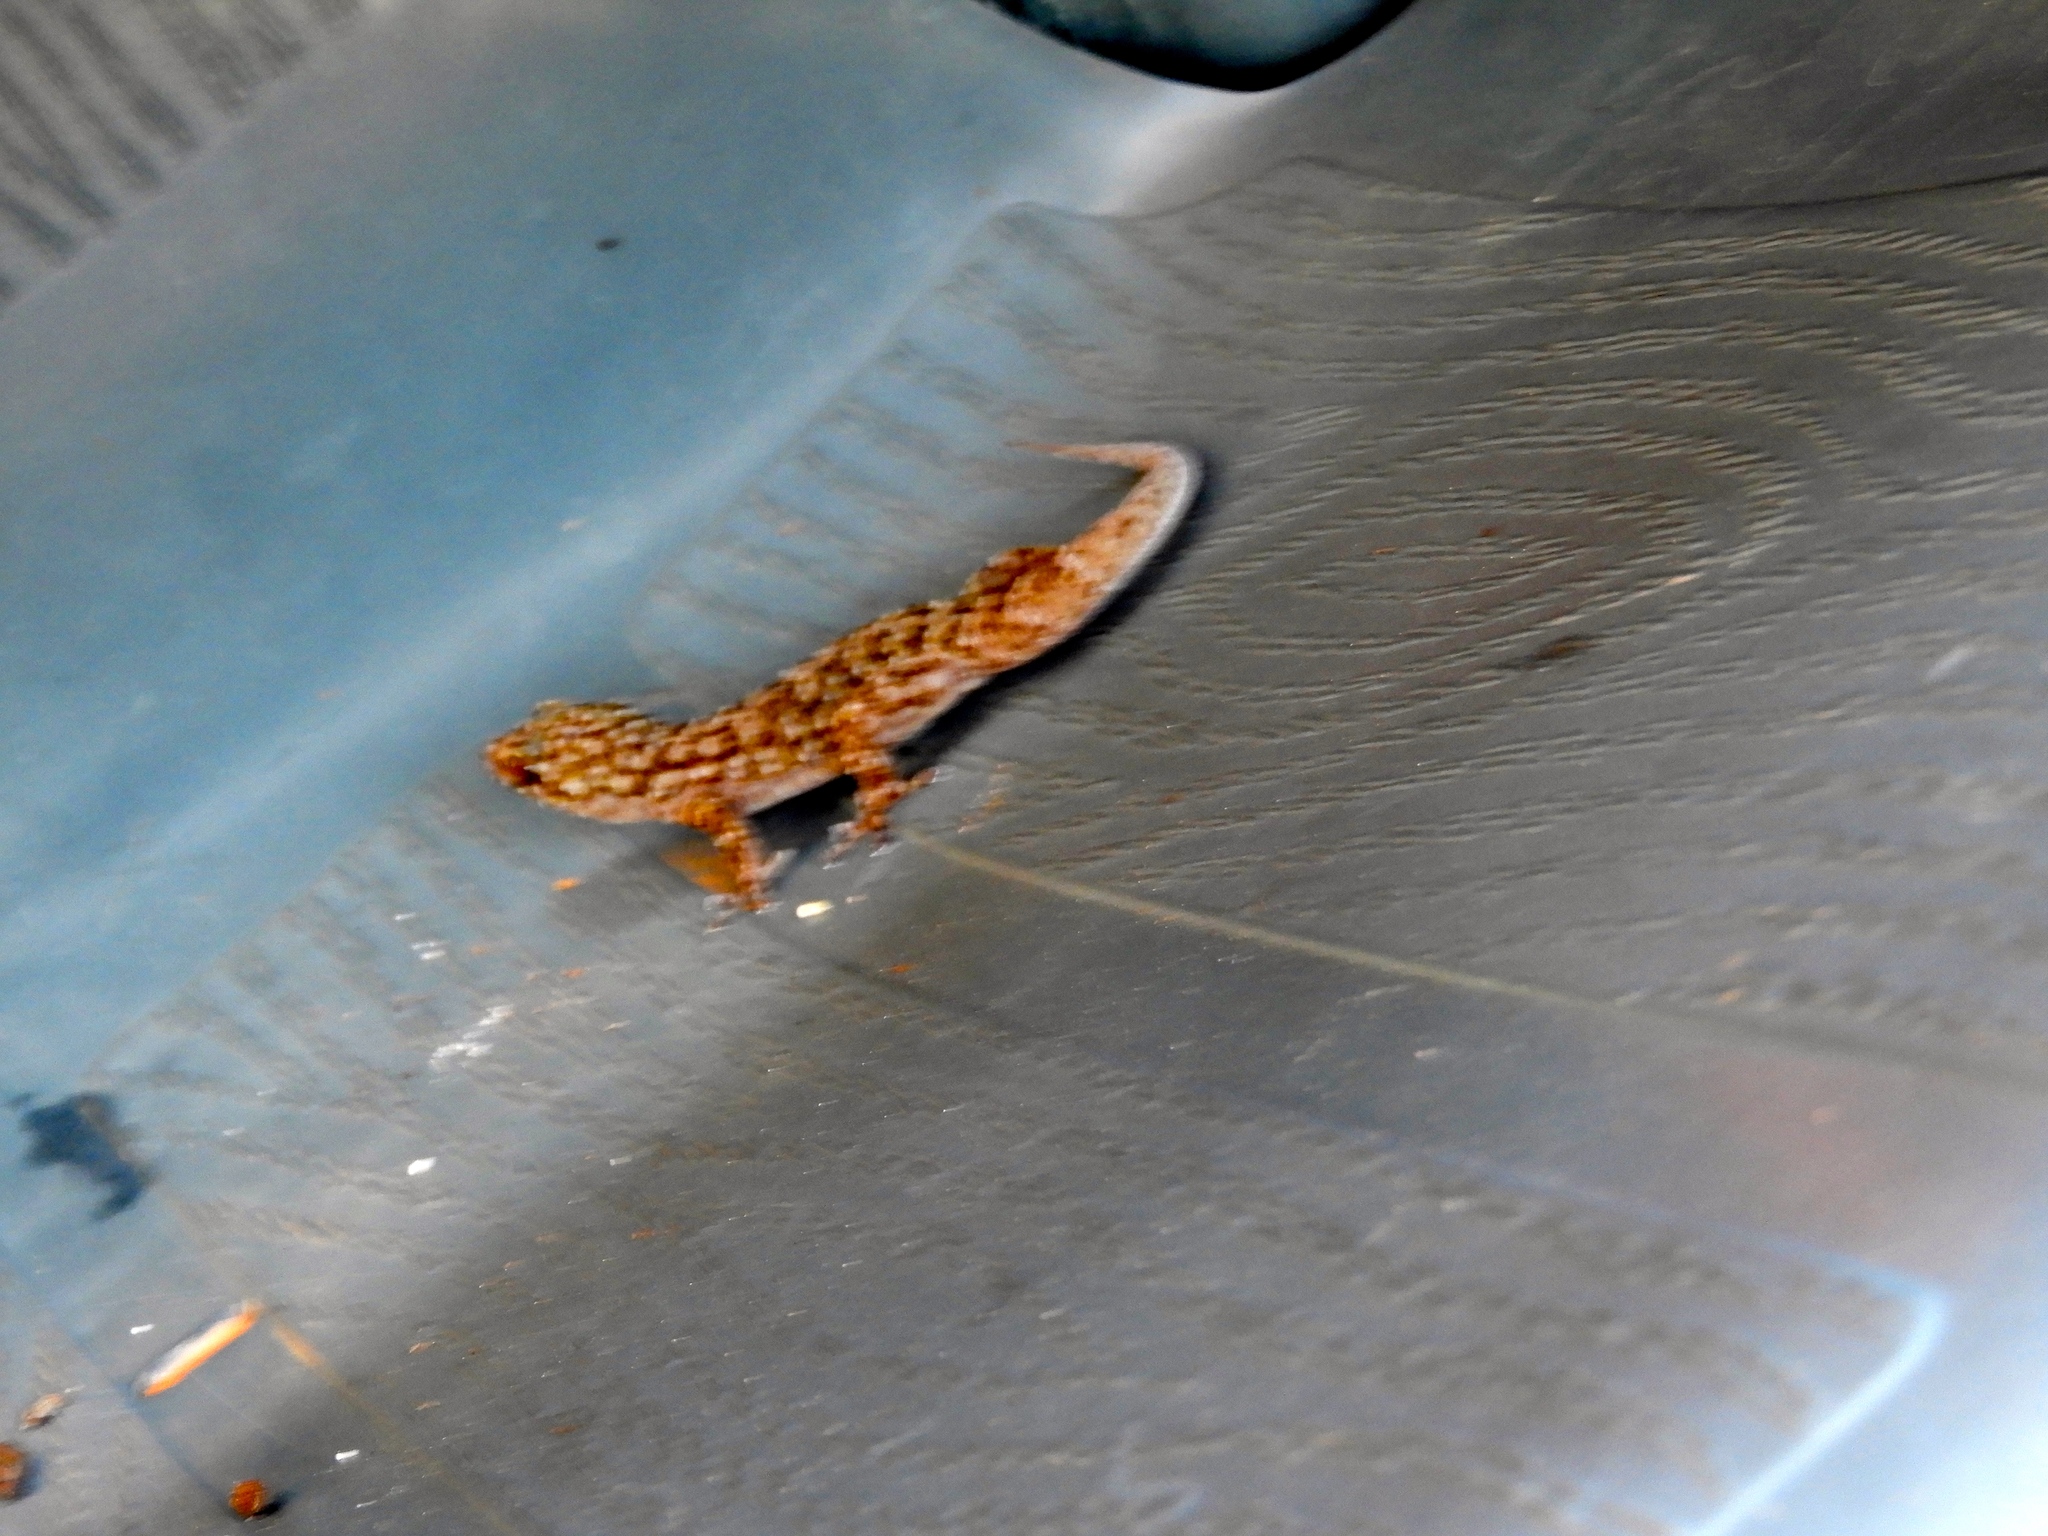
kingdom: Animalia
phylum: Chordata
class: Squamata
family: Phyllodactylidae
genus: Phyllodactylus
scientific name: Phyllodactylus tuberculosus
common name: Yellowbelly  gecko
